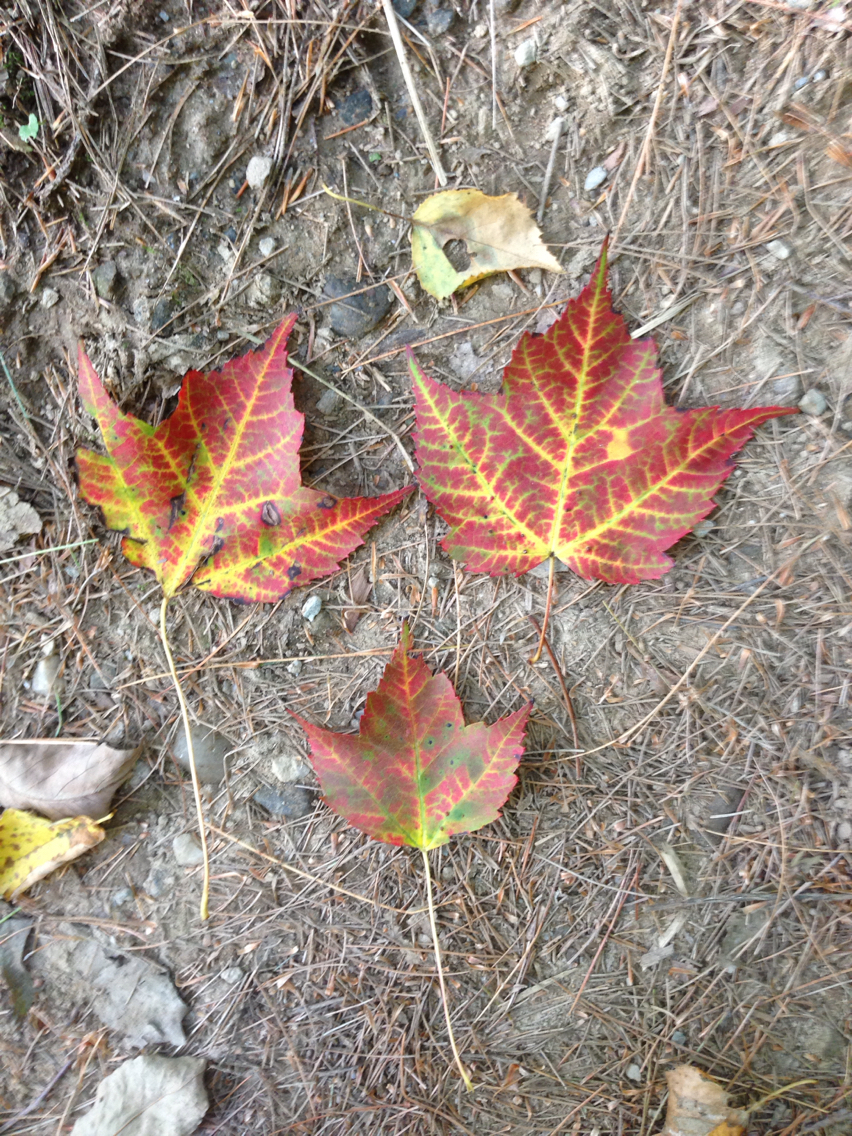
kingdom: Plantae
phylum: Tracheophyta
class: Magnoliopsida
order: Sapindales
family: Sapindaceae
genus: Acer
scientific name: Acer rubrum
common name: Red maple
